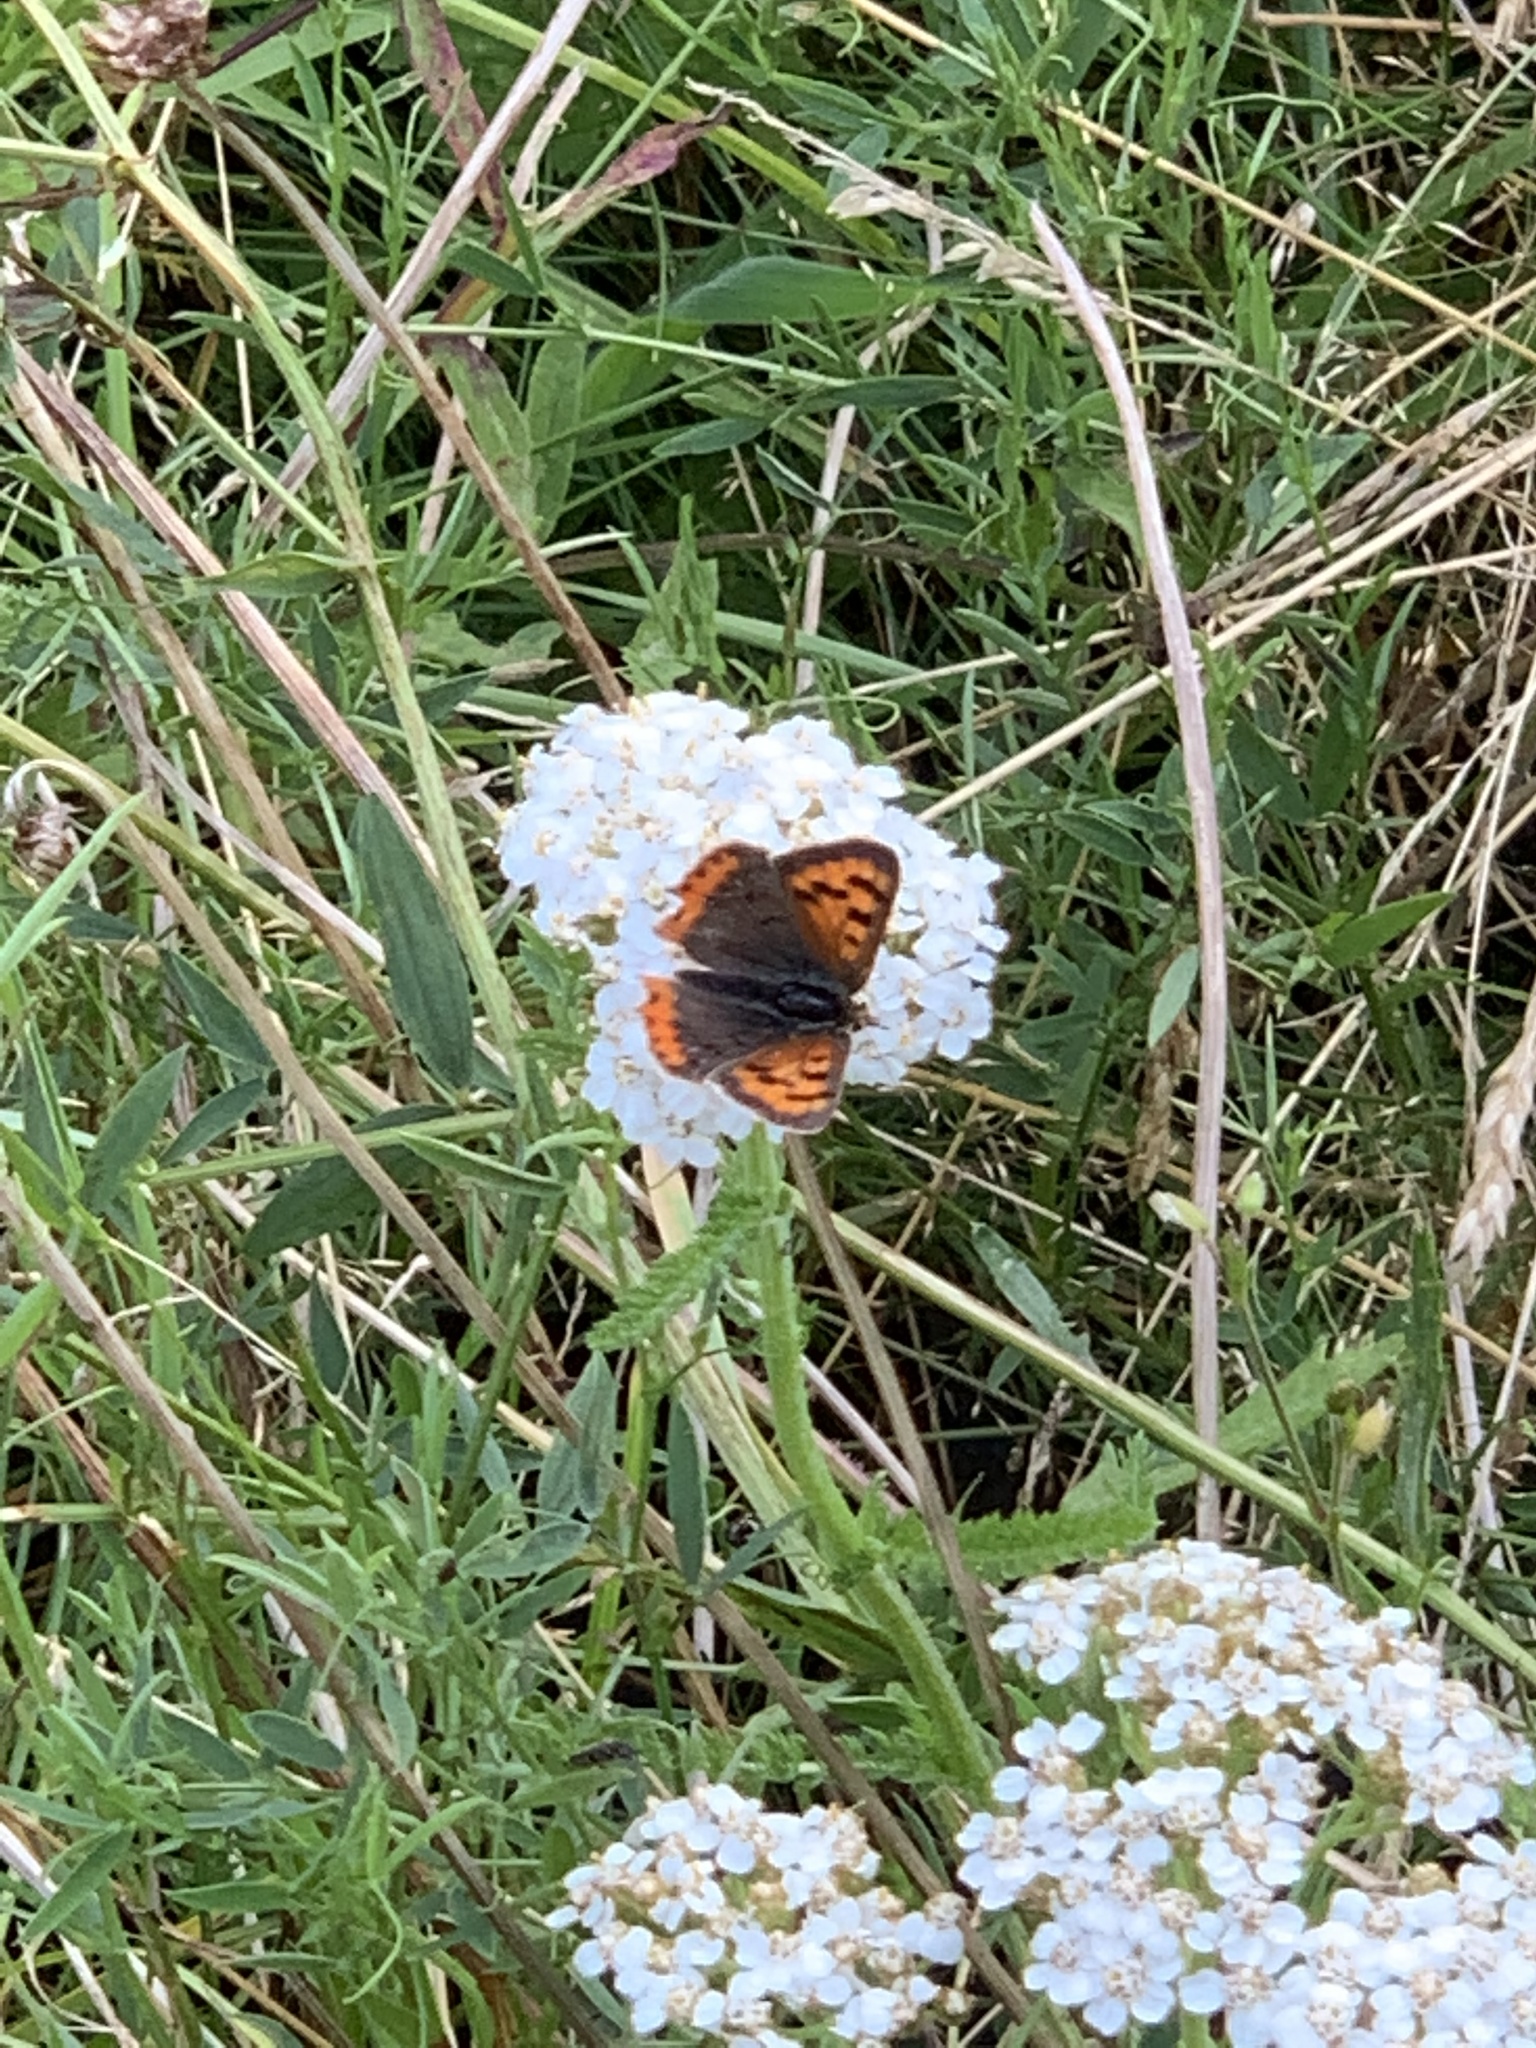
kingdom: Animalia
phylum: Arthropoda
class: Insecta
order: Lepidoptera
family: Lycaenidae
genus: Lycaena
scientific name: Lycaena phlaeas
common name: Small copper
